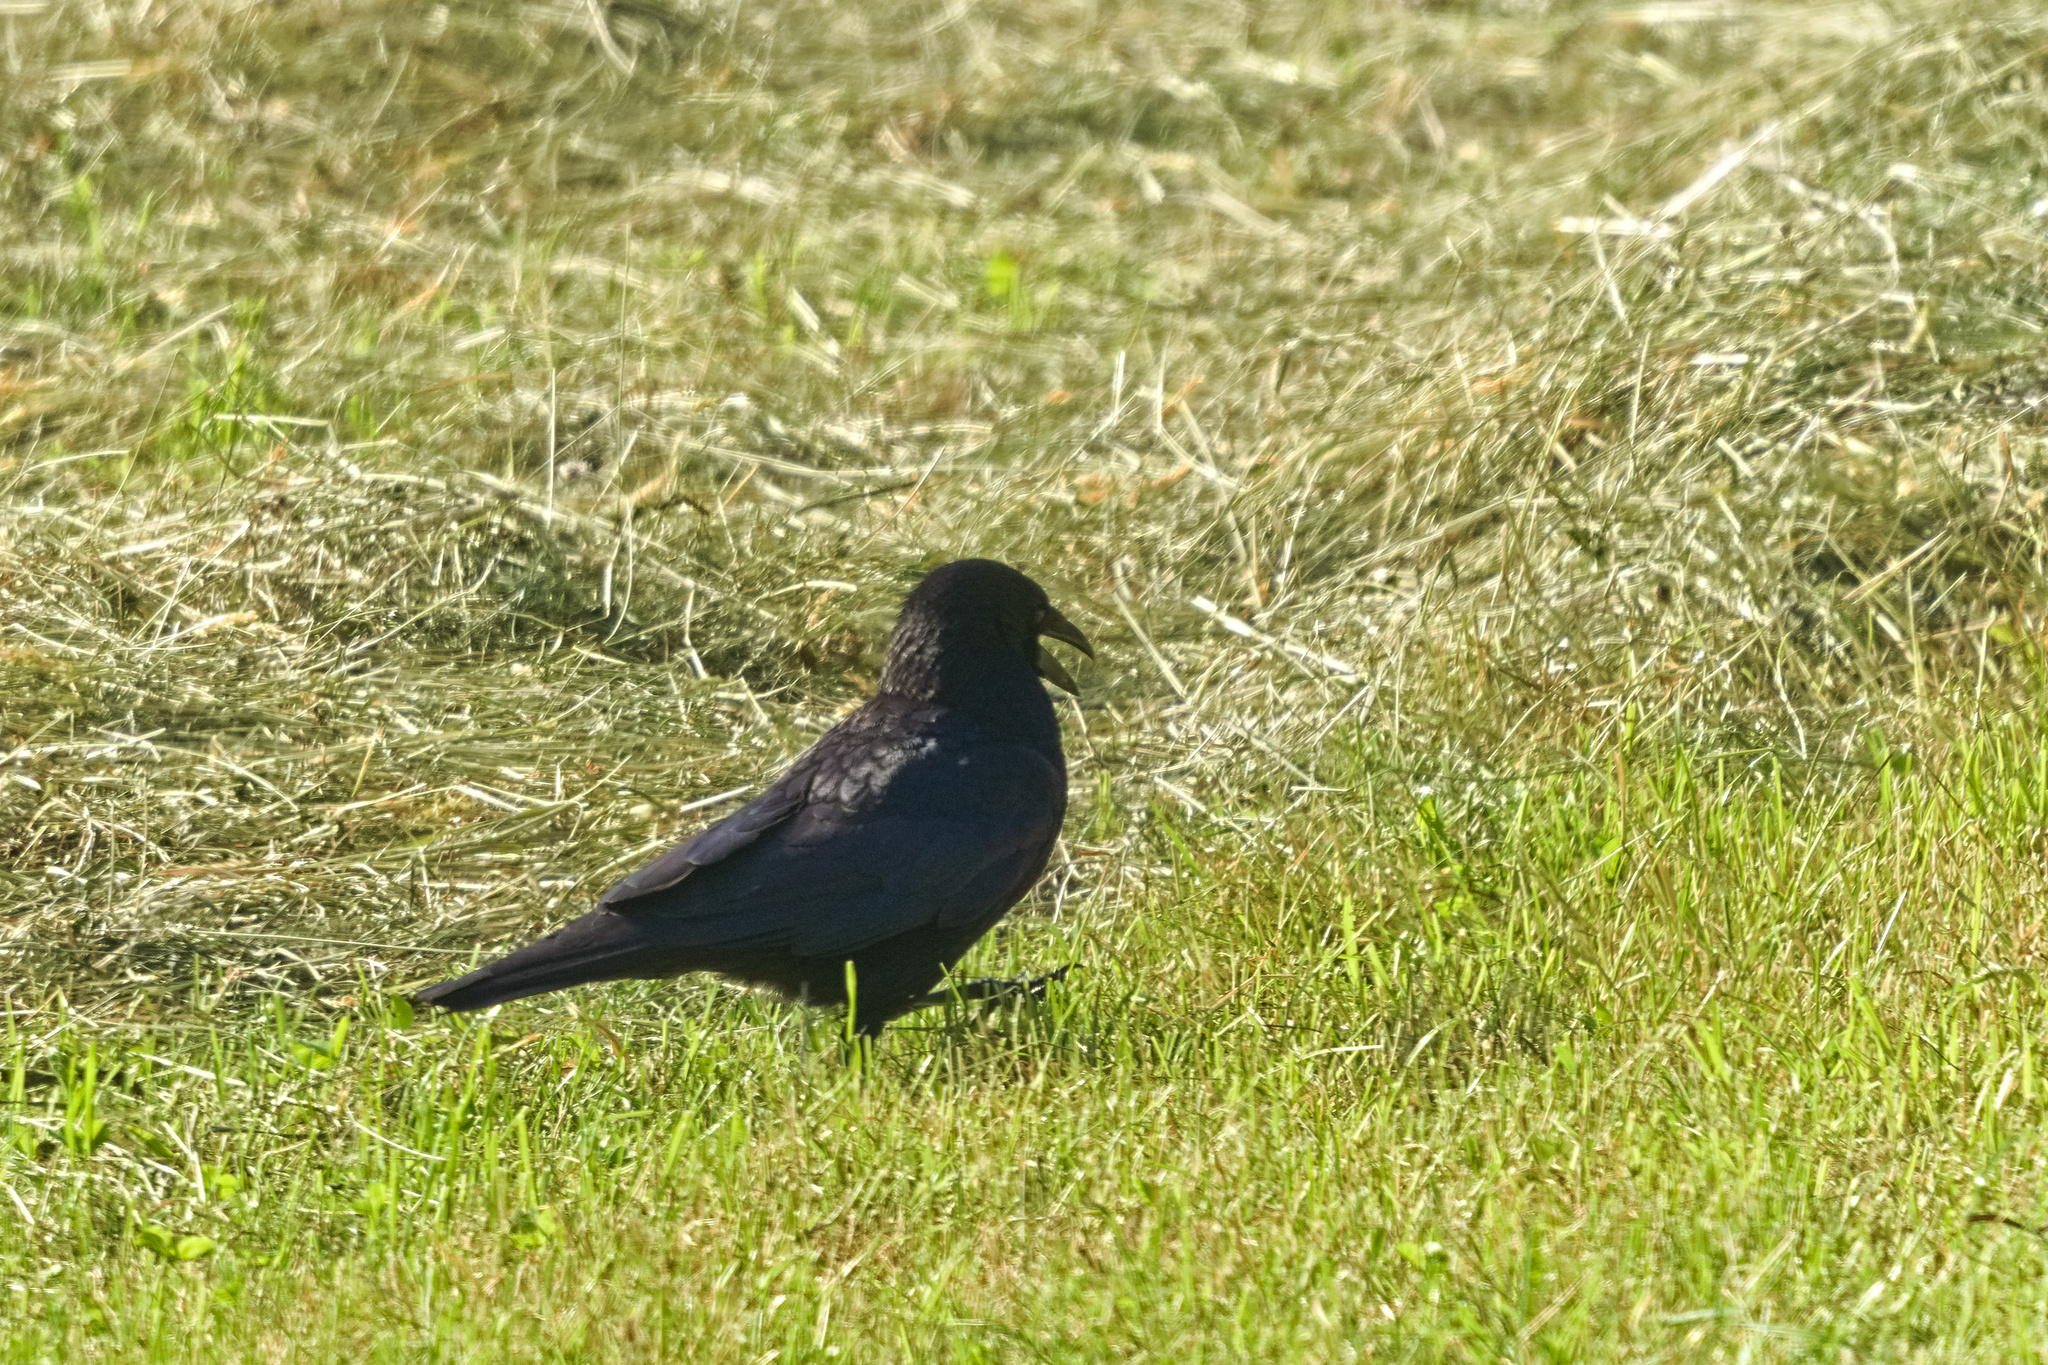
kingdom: Animalia
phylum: Chordata
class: Aves
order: Passeriformes
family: Corvidae
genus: Corvus
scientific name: Corvus corone
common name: Carrion crow
